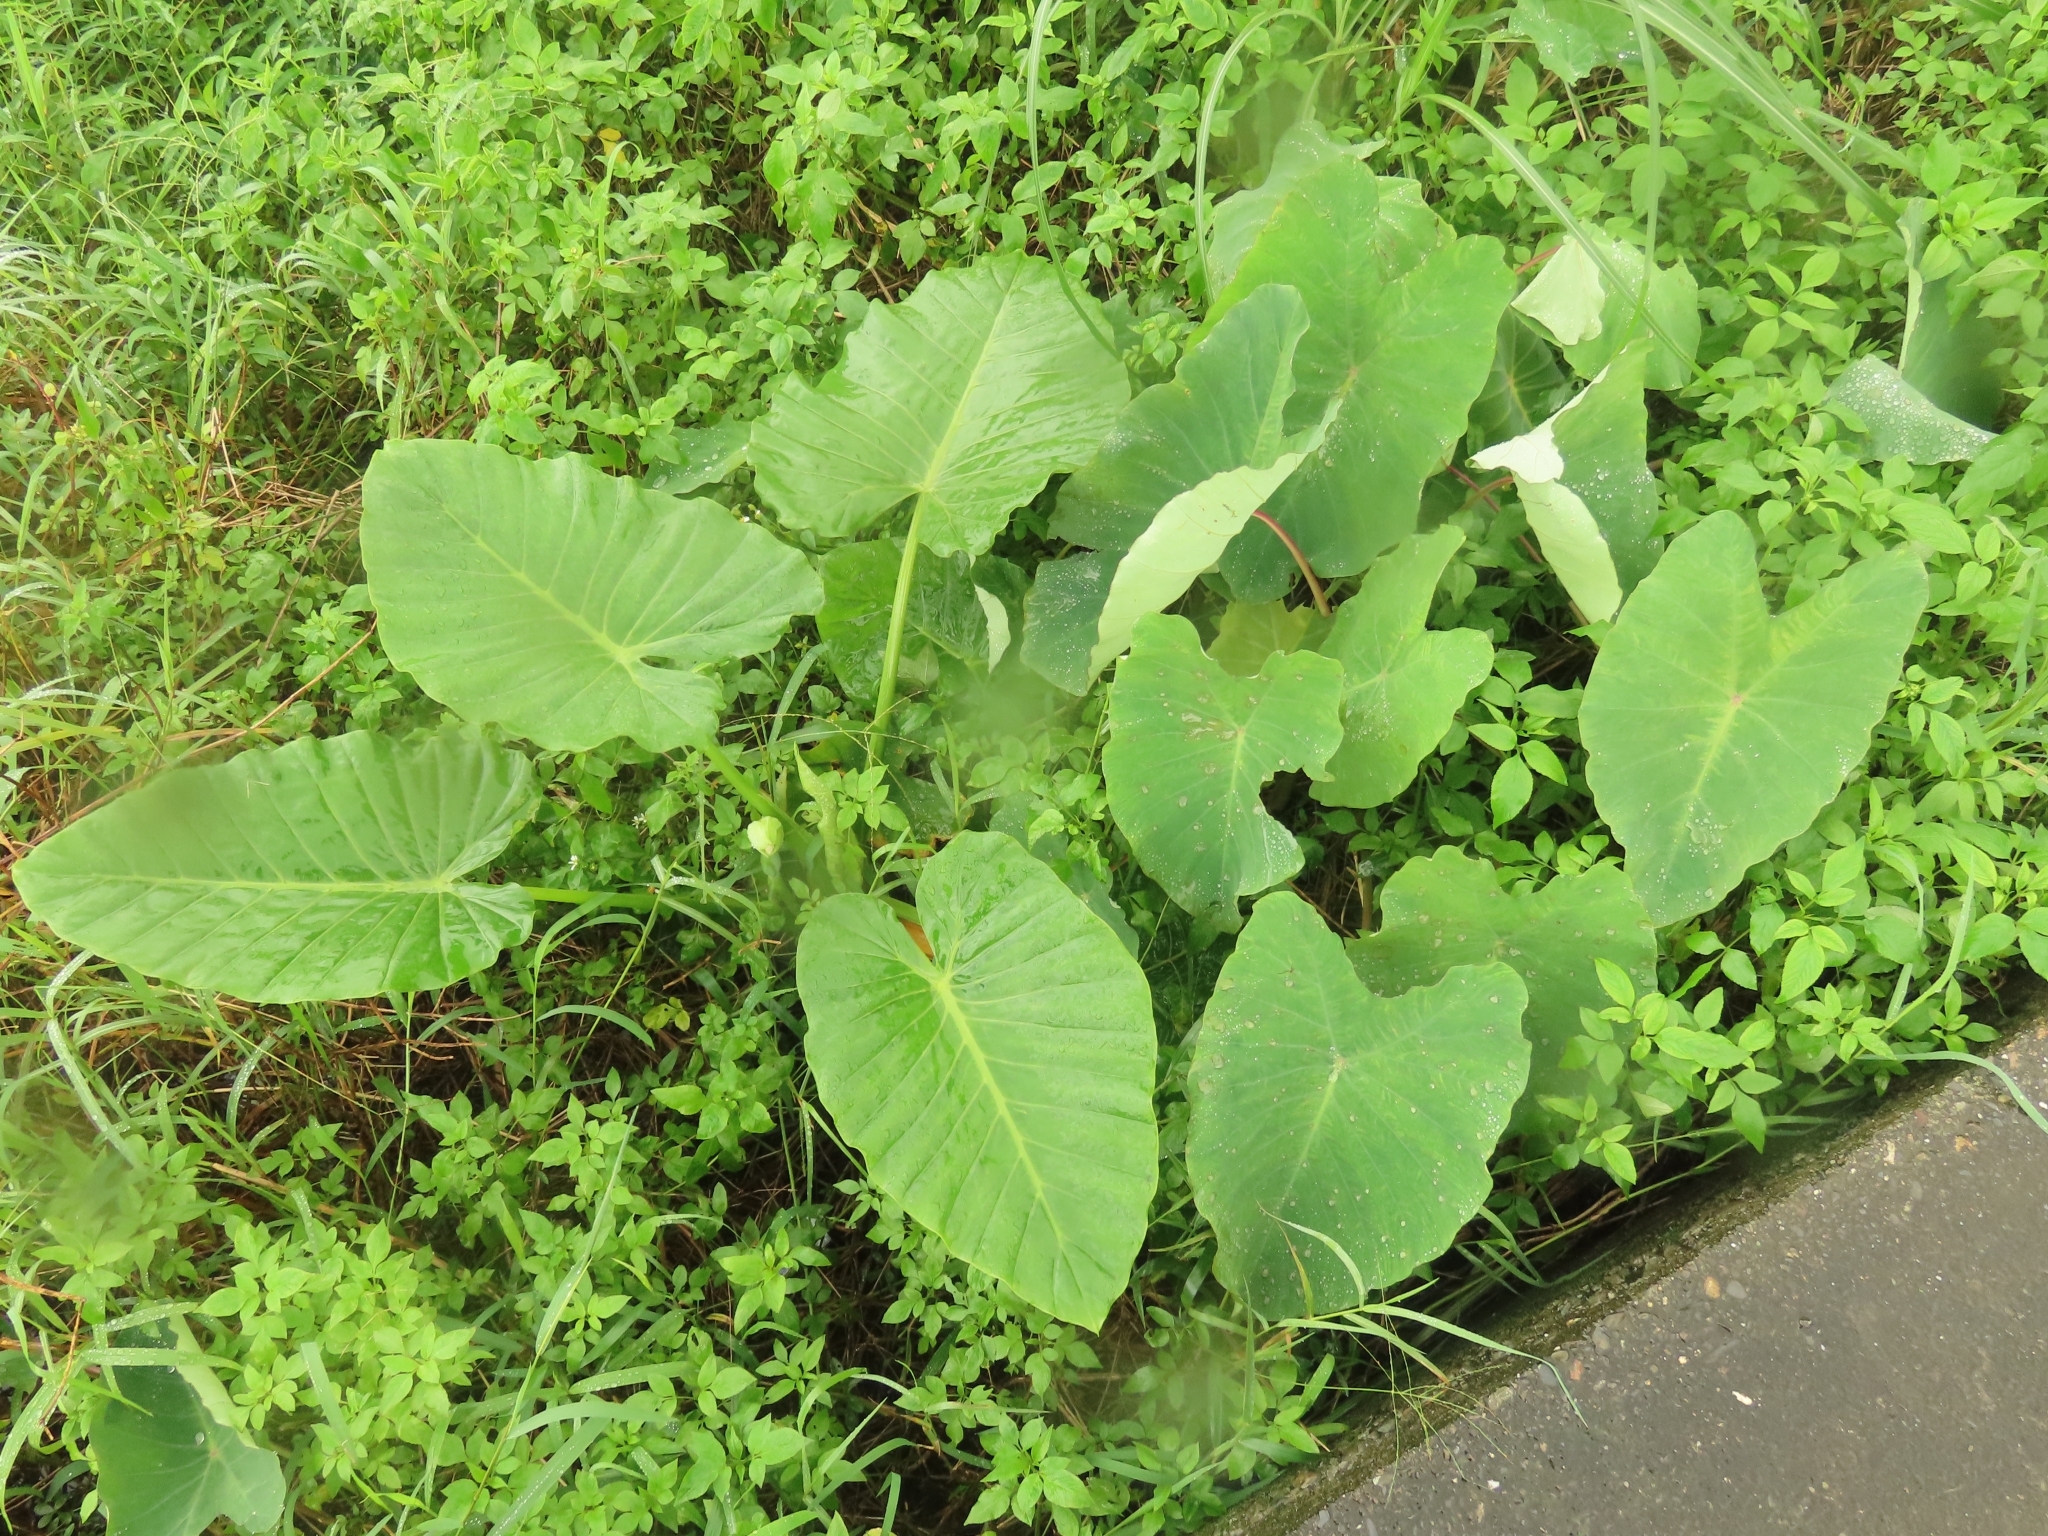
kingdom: Plantae
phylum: Tracheophyta
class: Liliopsida
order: Alismatales
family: Araceae
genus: Alocasia
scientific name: Alocasia odora
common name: Asian taro
